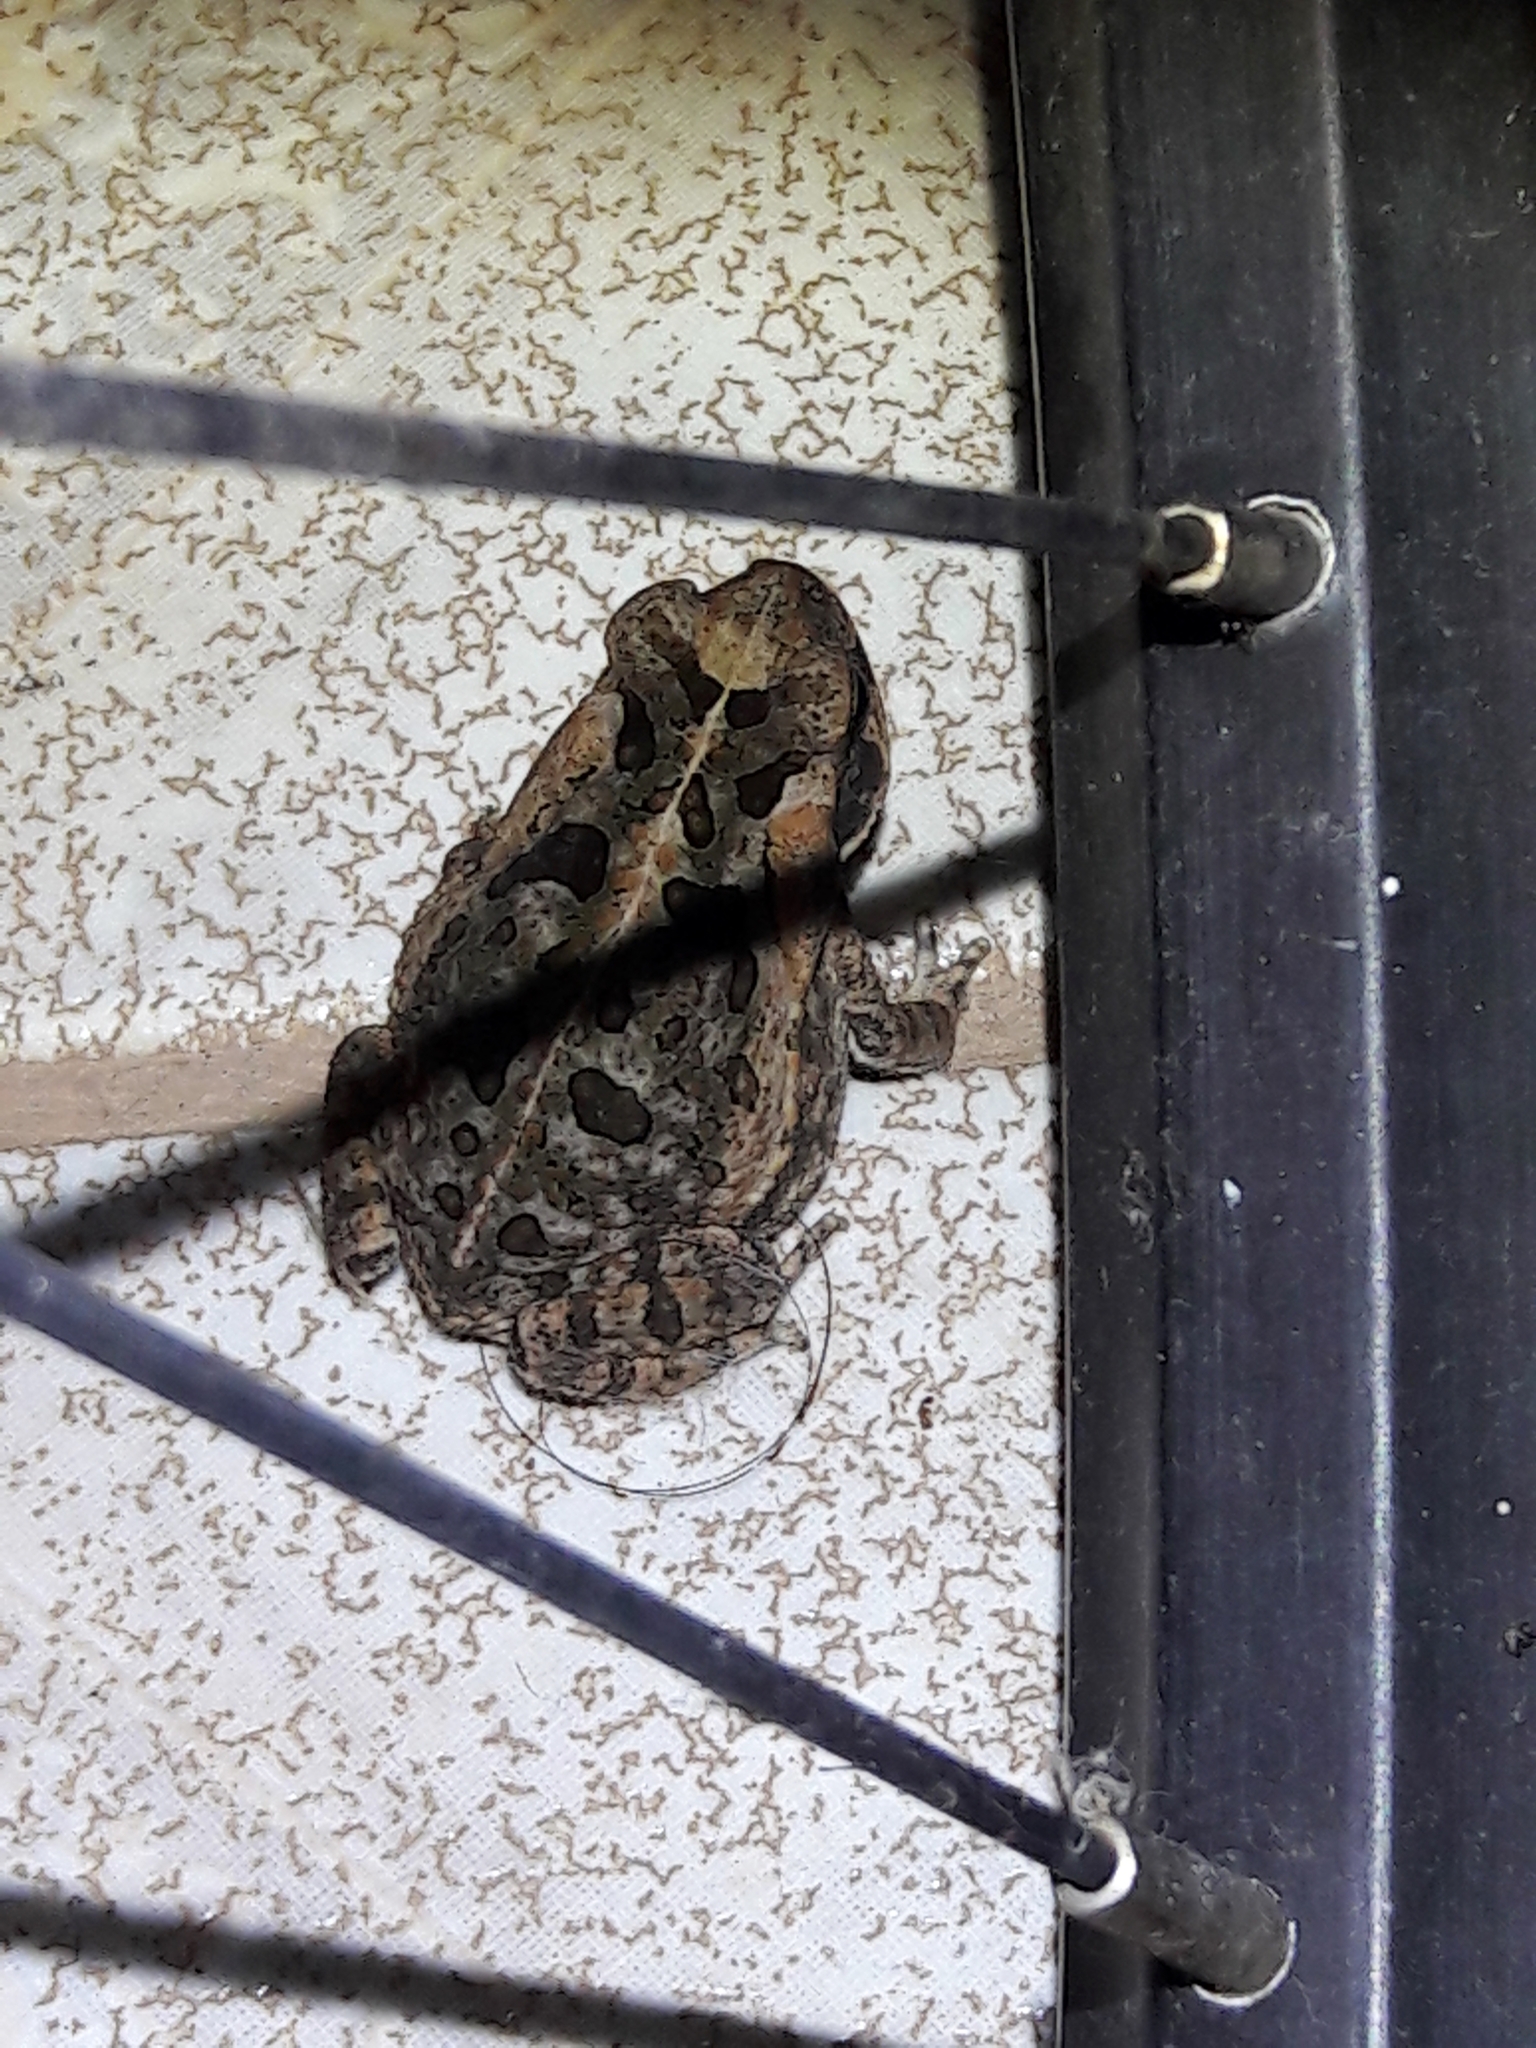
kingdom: Animalia
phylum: Chordata
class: Amphibia
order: Anura
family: Bufonidae
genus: Rhinella
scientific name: Rhinella diptycha
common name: Cope's toad
